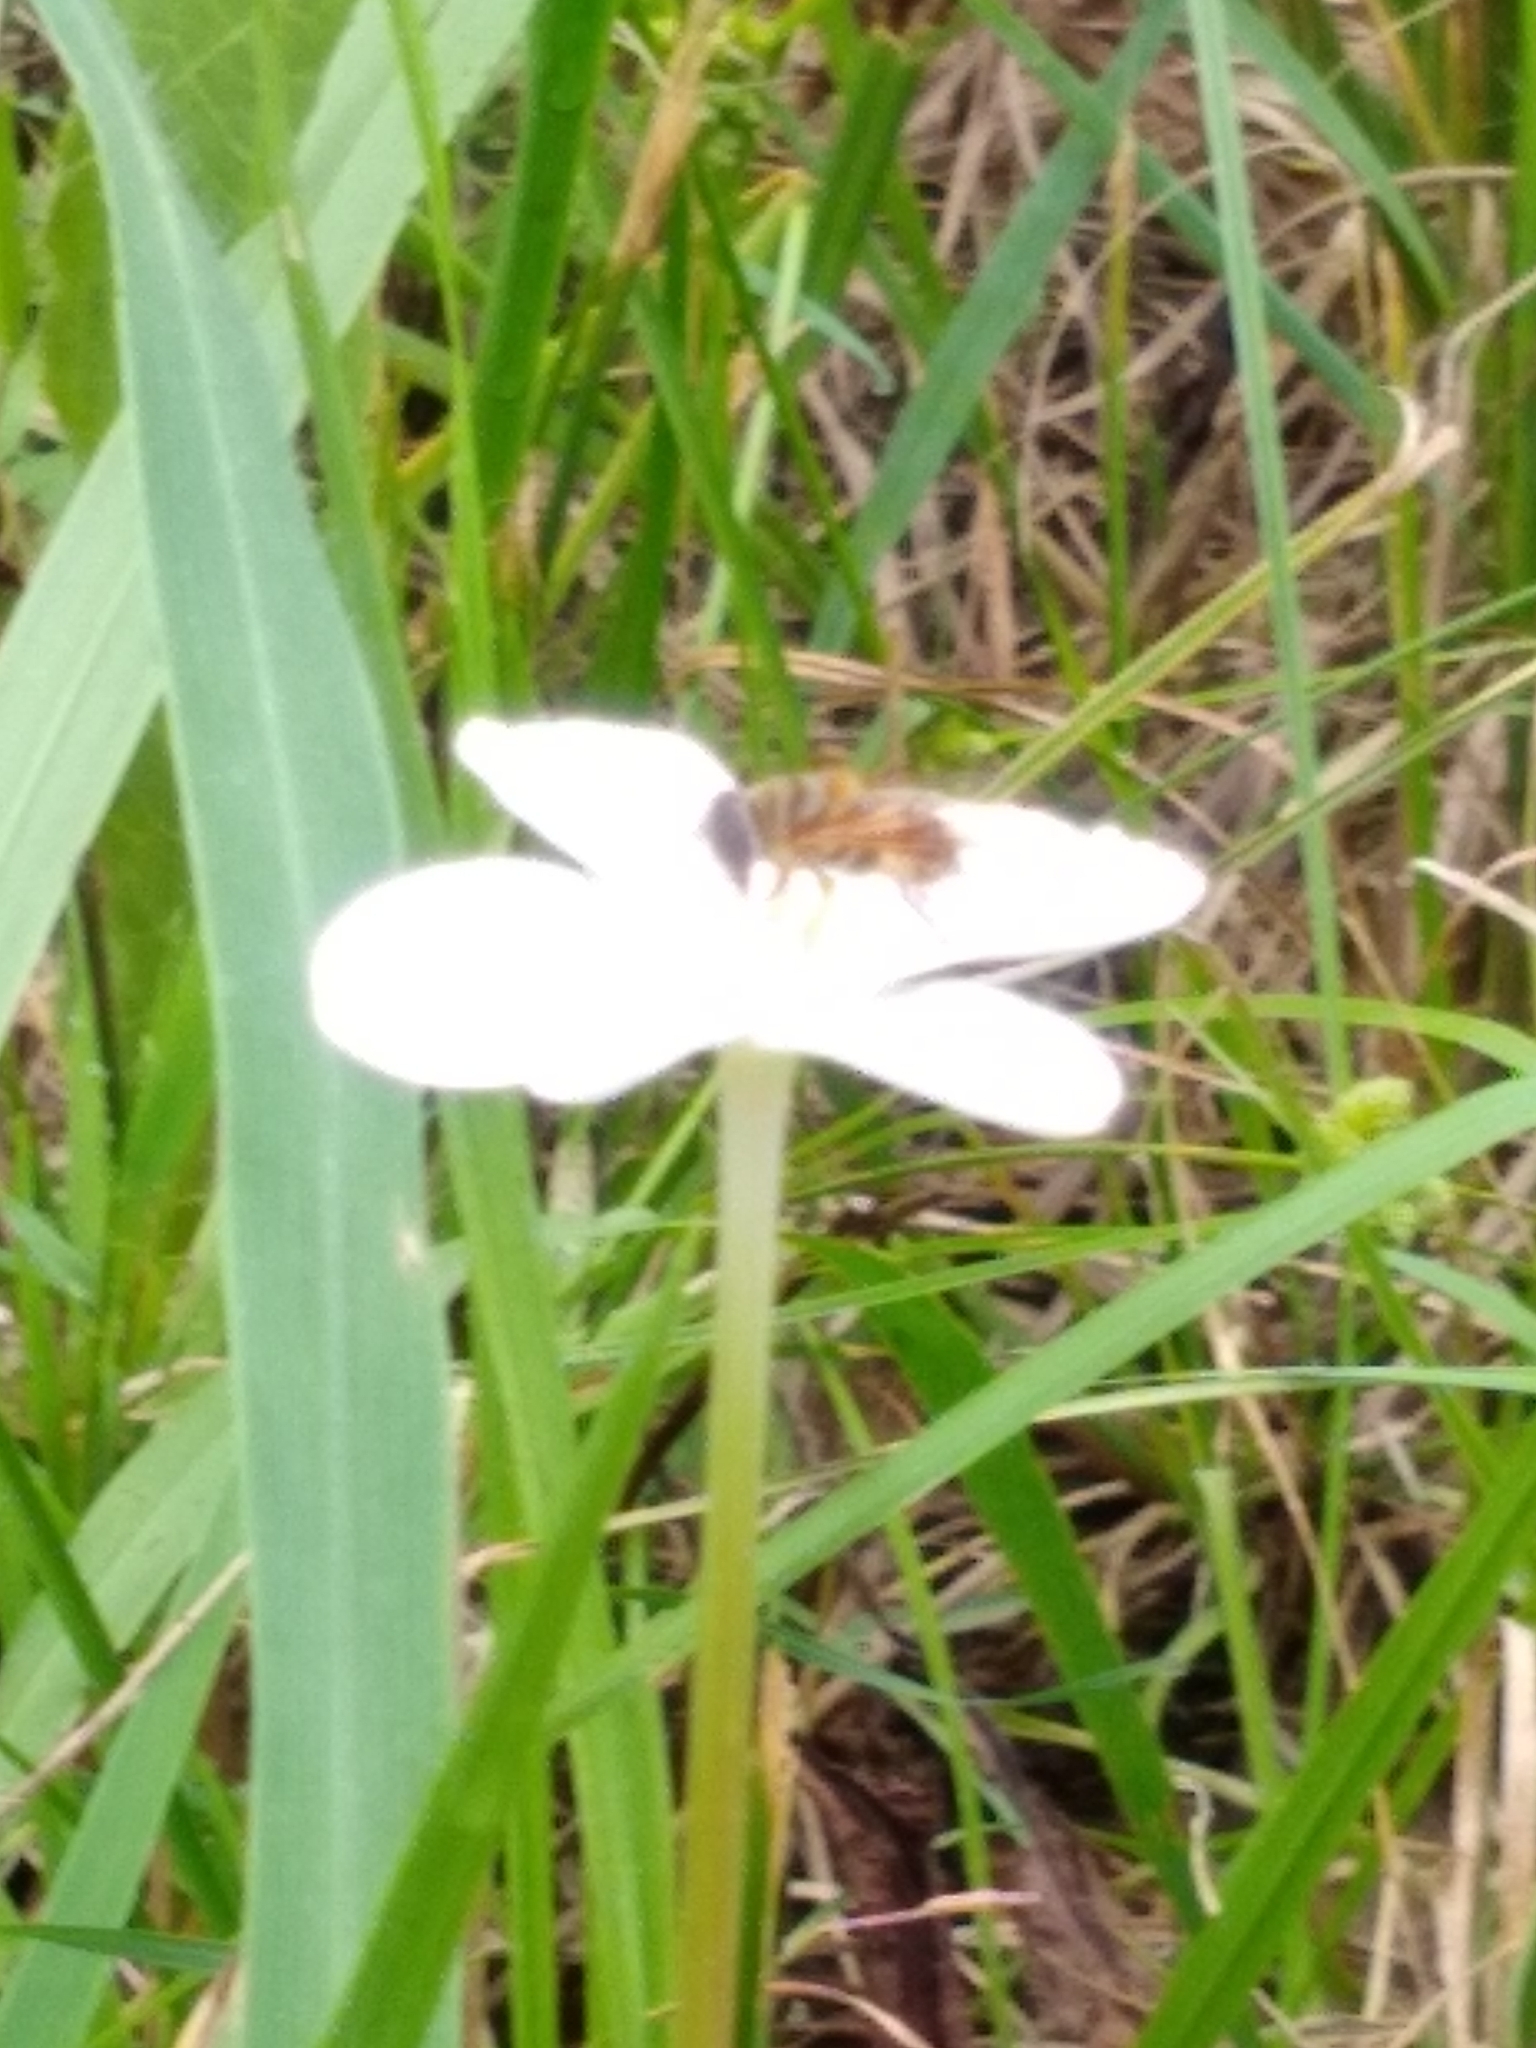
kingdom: Plantae
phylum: Tracheophyta
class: Liliopsida
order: Asparagales
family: Amaryllidaceae
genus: Zephyranthes
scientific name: Zephyranthes chlorosolen
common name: Evening rain-lily
